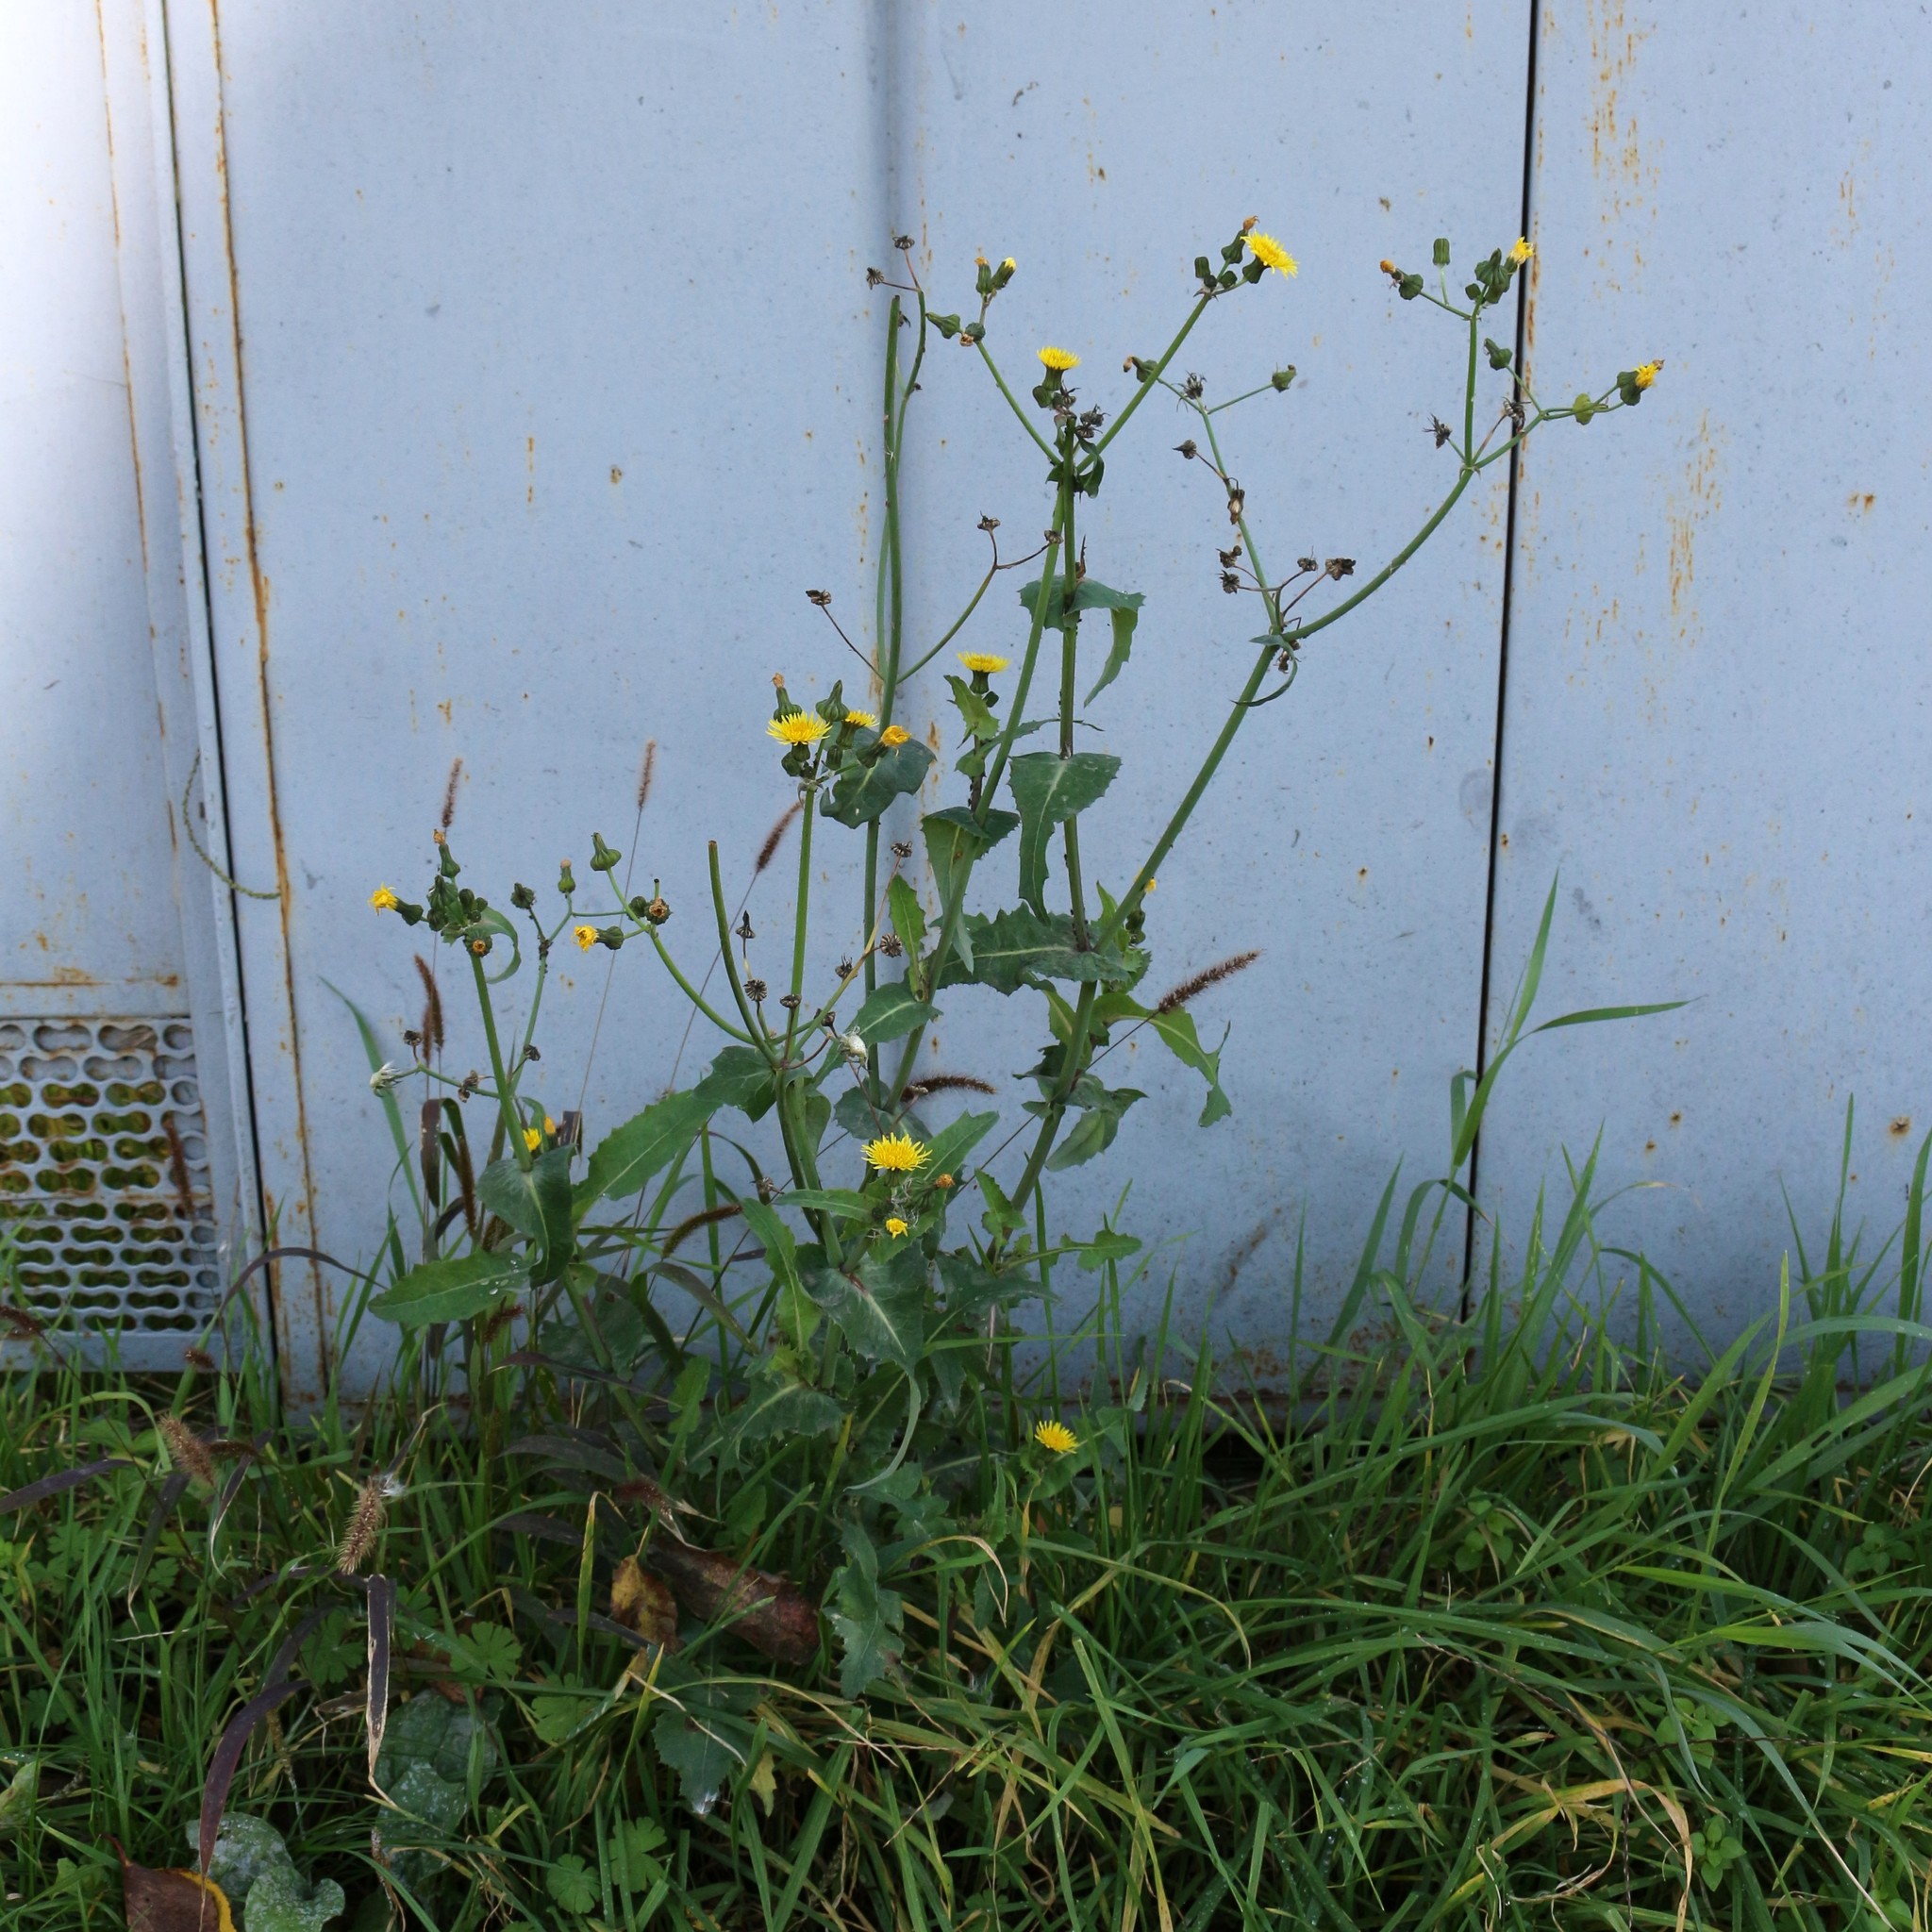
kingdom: Plantae
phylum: Tracheophyta
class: Magnoliopsida
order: Asterales
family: Asteraceae
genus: Sonchus
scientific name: Sonchus oleraceus
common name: Common sowthistle
